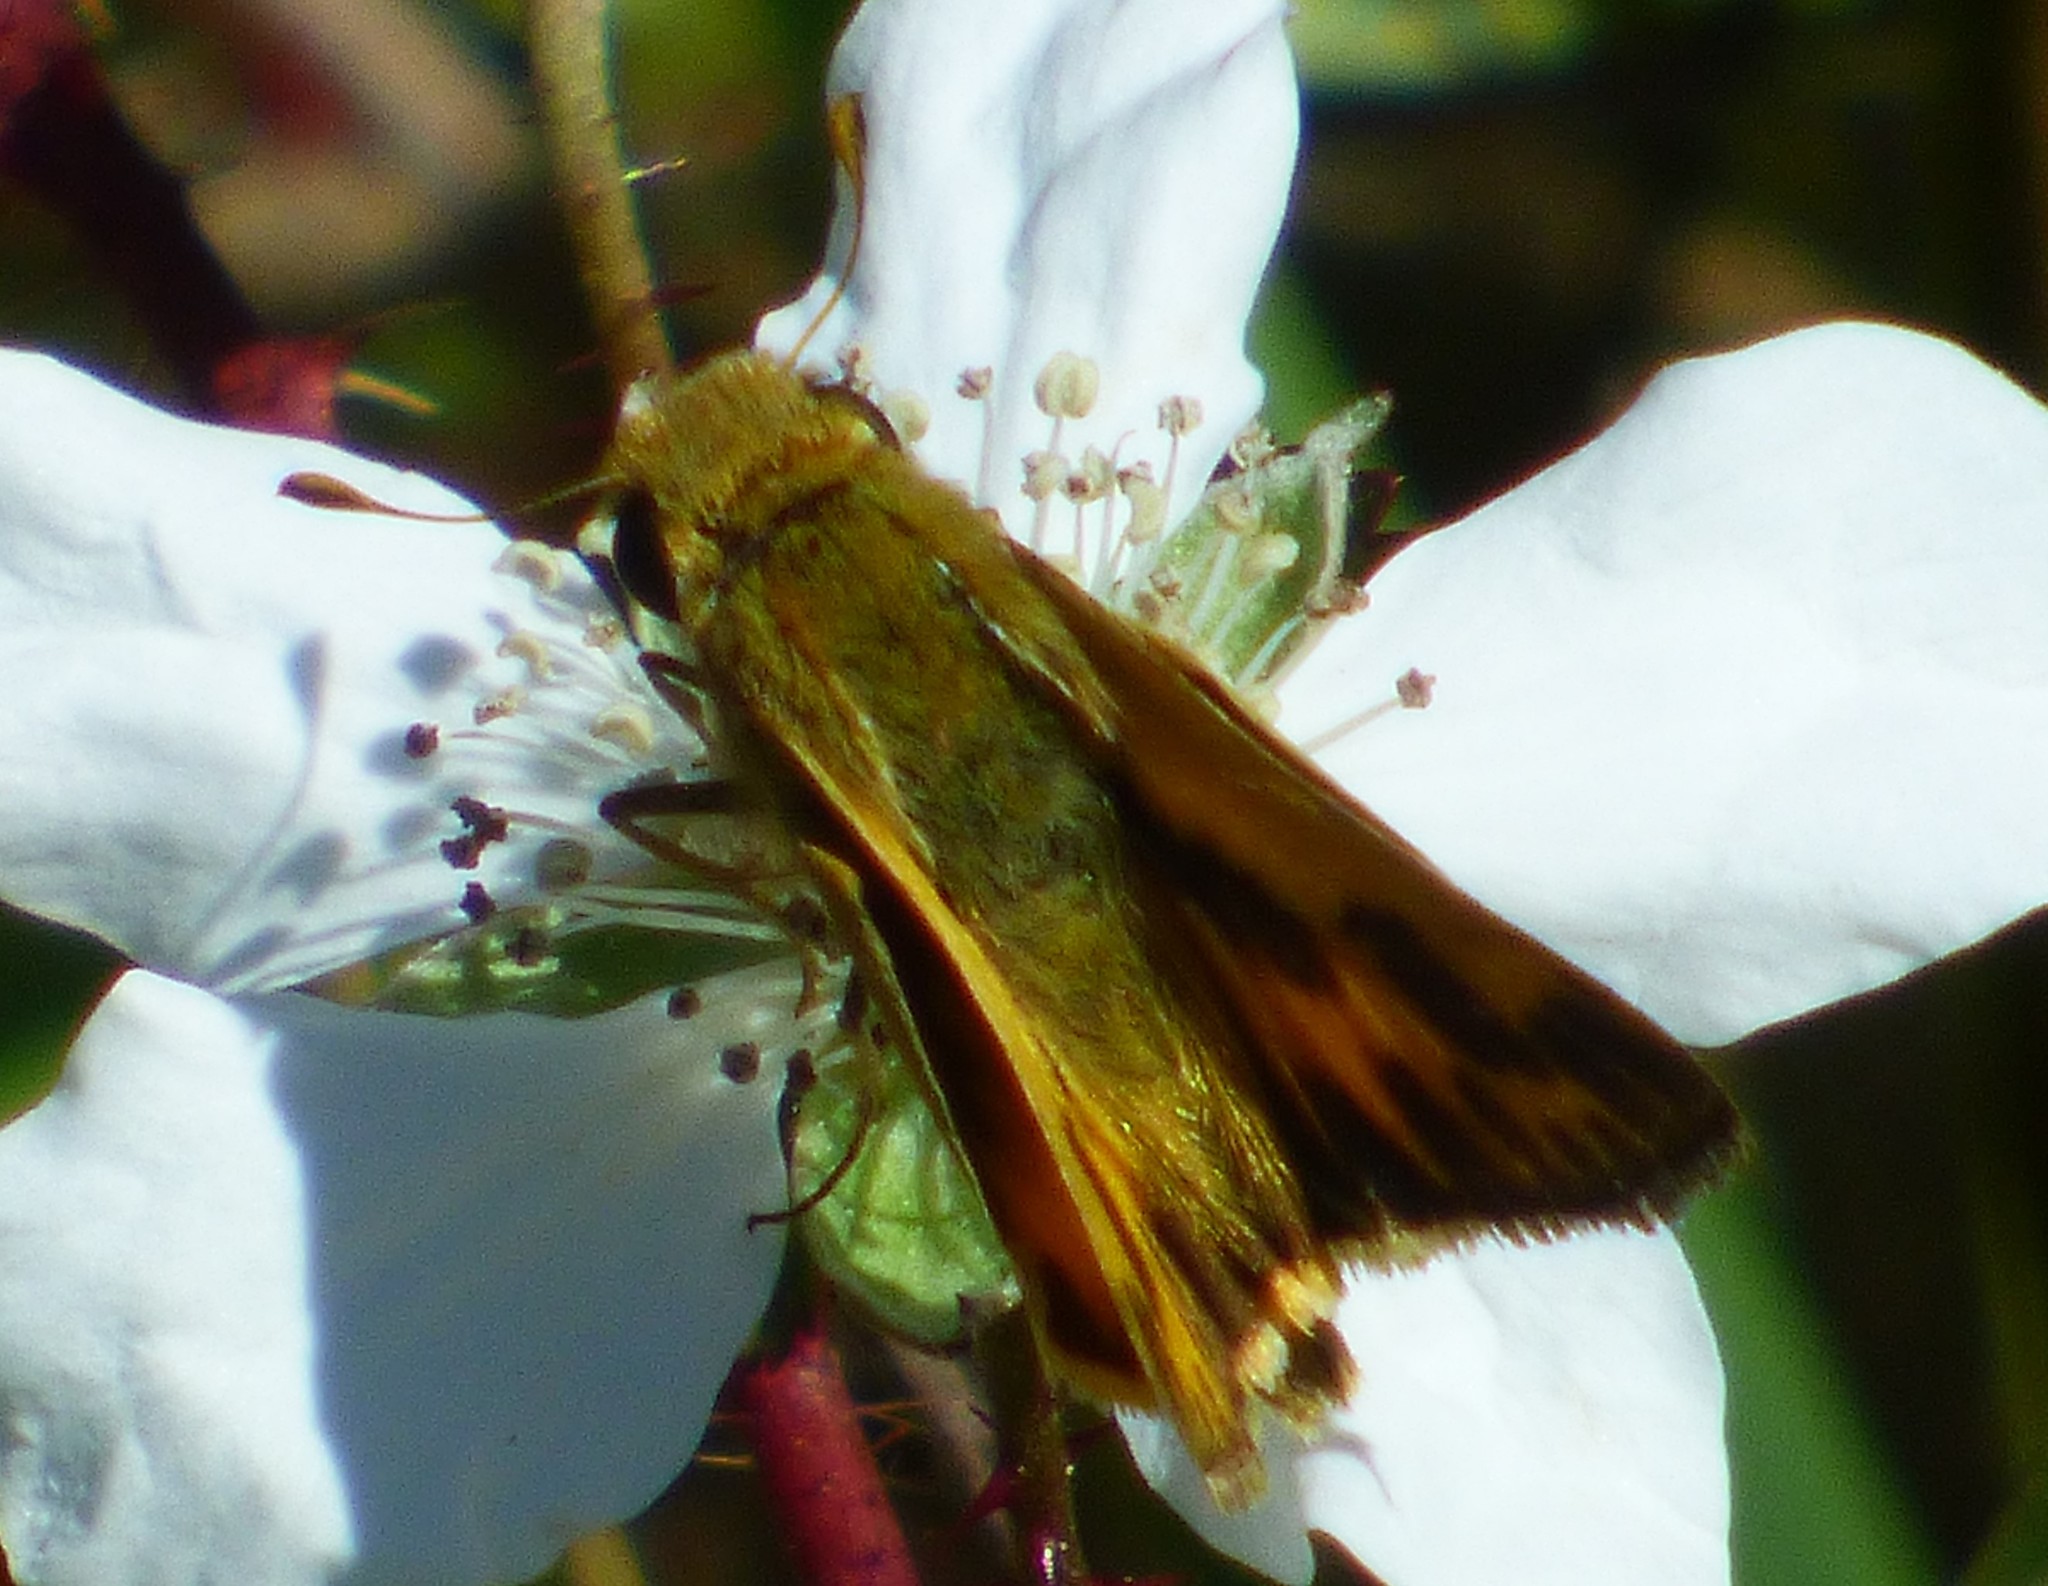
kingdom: Animalia
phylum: Arthropoda
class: Insecta
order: Lepidoptera
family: Hesperiidae
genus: Hylephila
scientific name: Hylephila phyleus
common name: Fiery skipper
